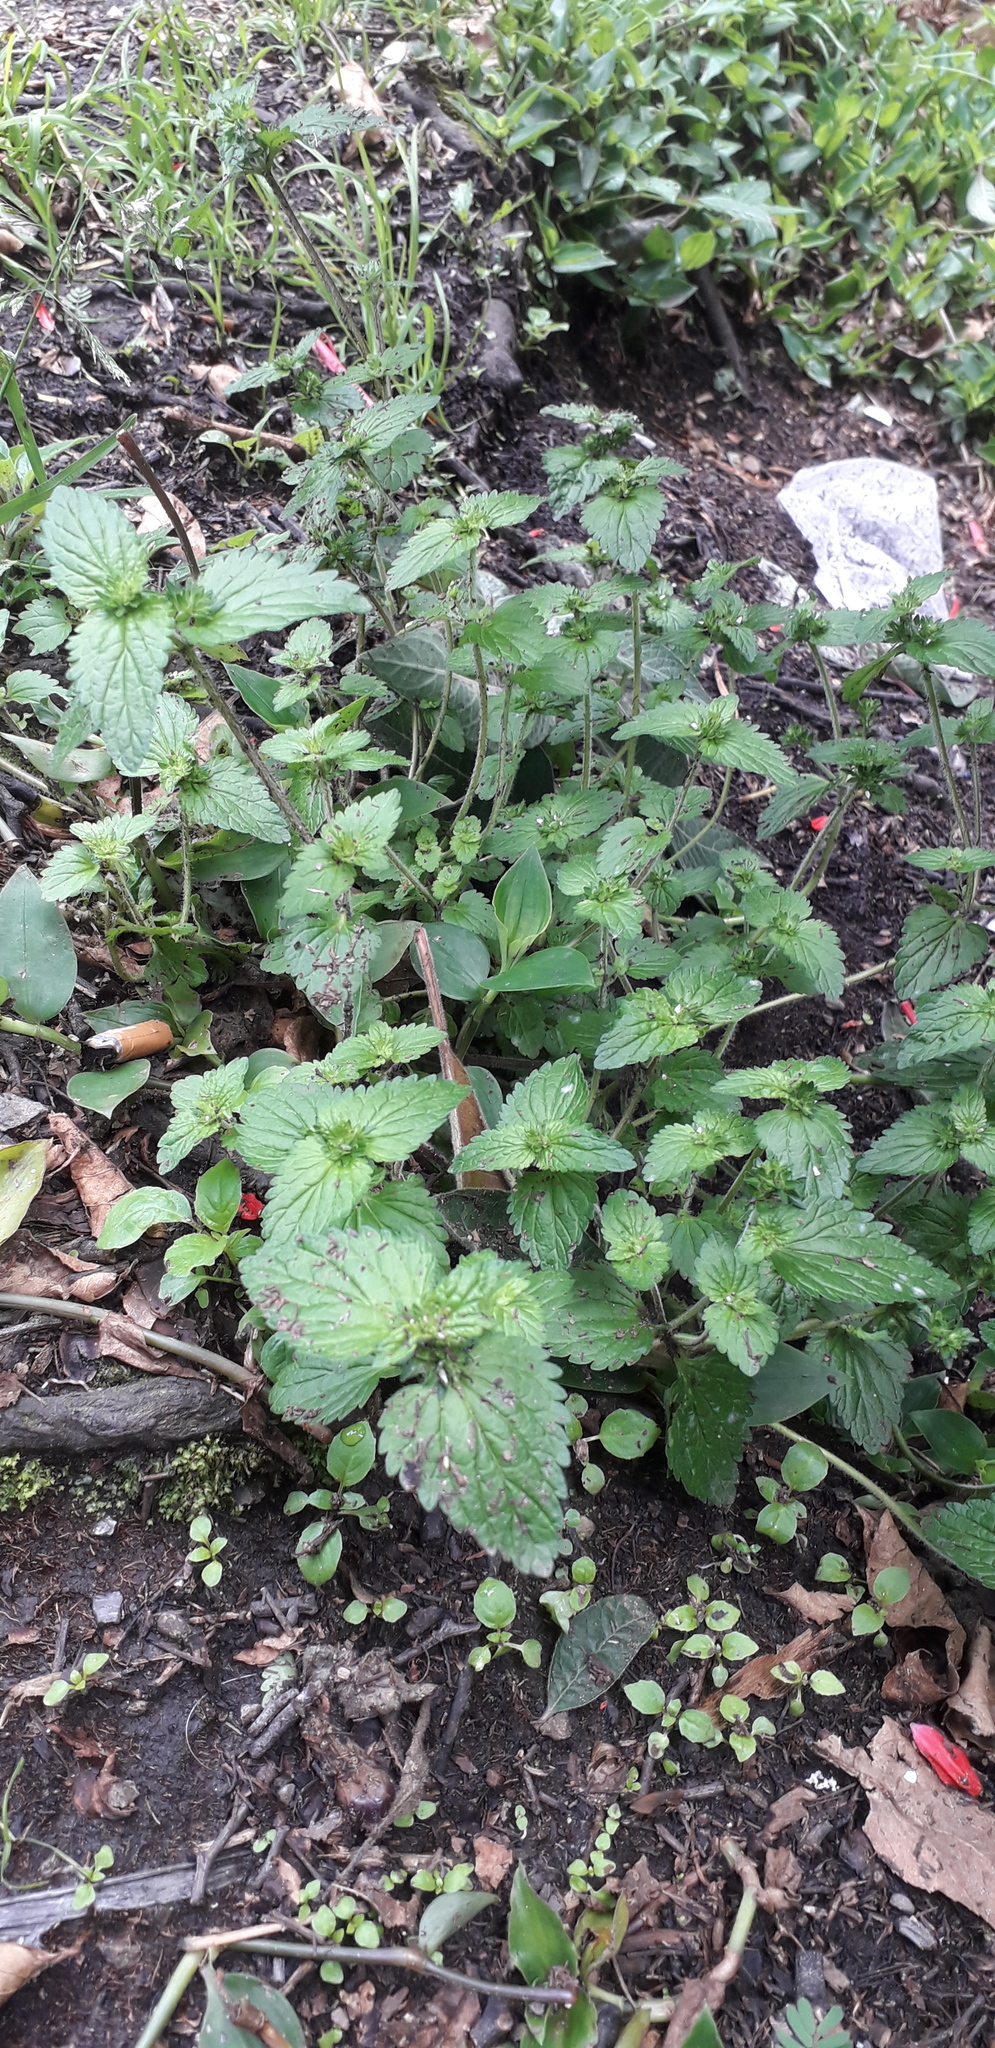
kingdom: Plantae
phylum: Tracheophyta
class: Magnoliopsida
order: Lamiales
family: Plantaginaceae
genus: Veronica
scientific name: Veronica javanica
